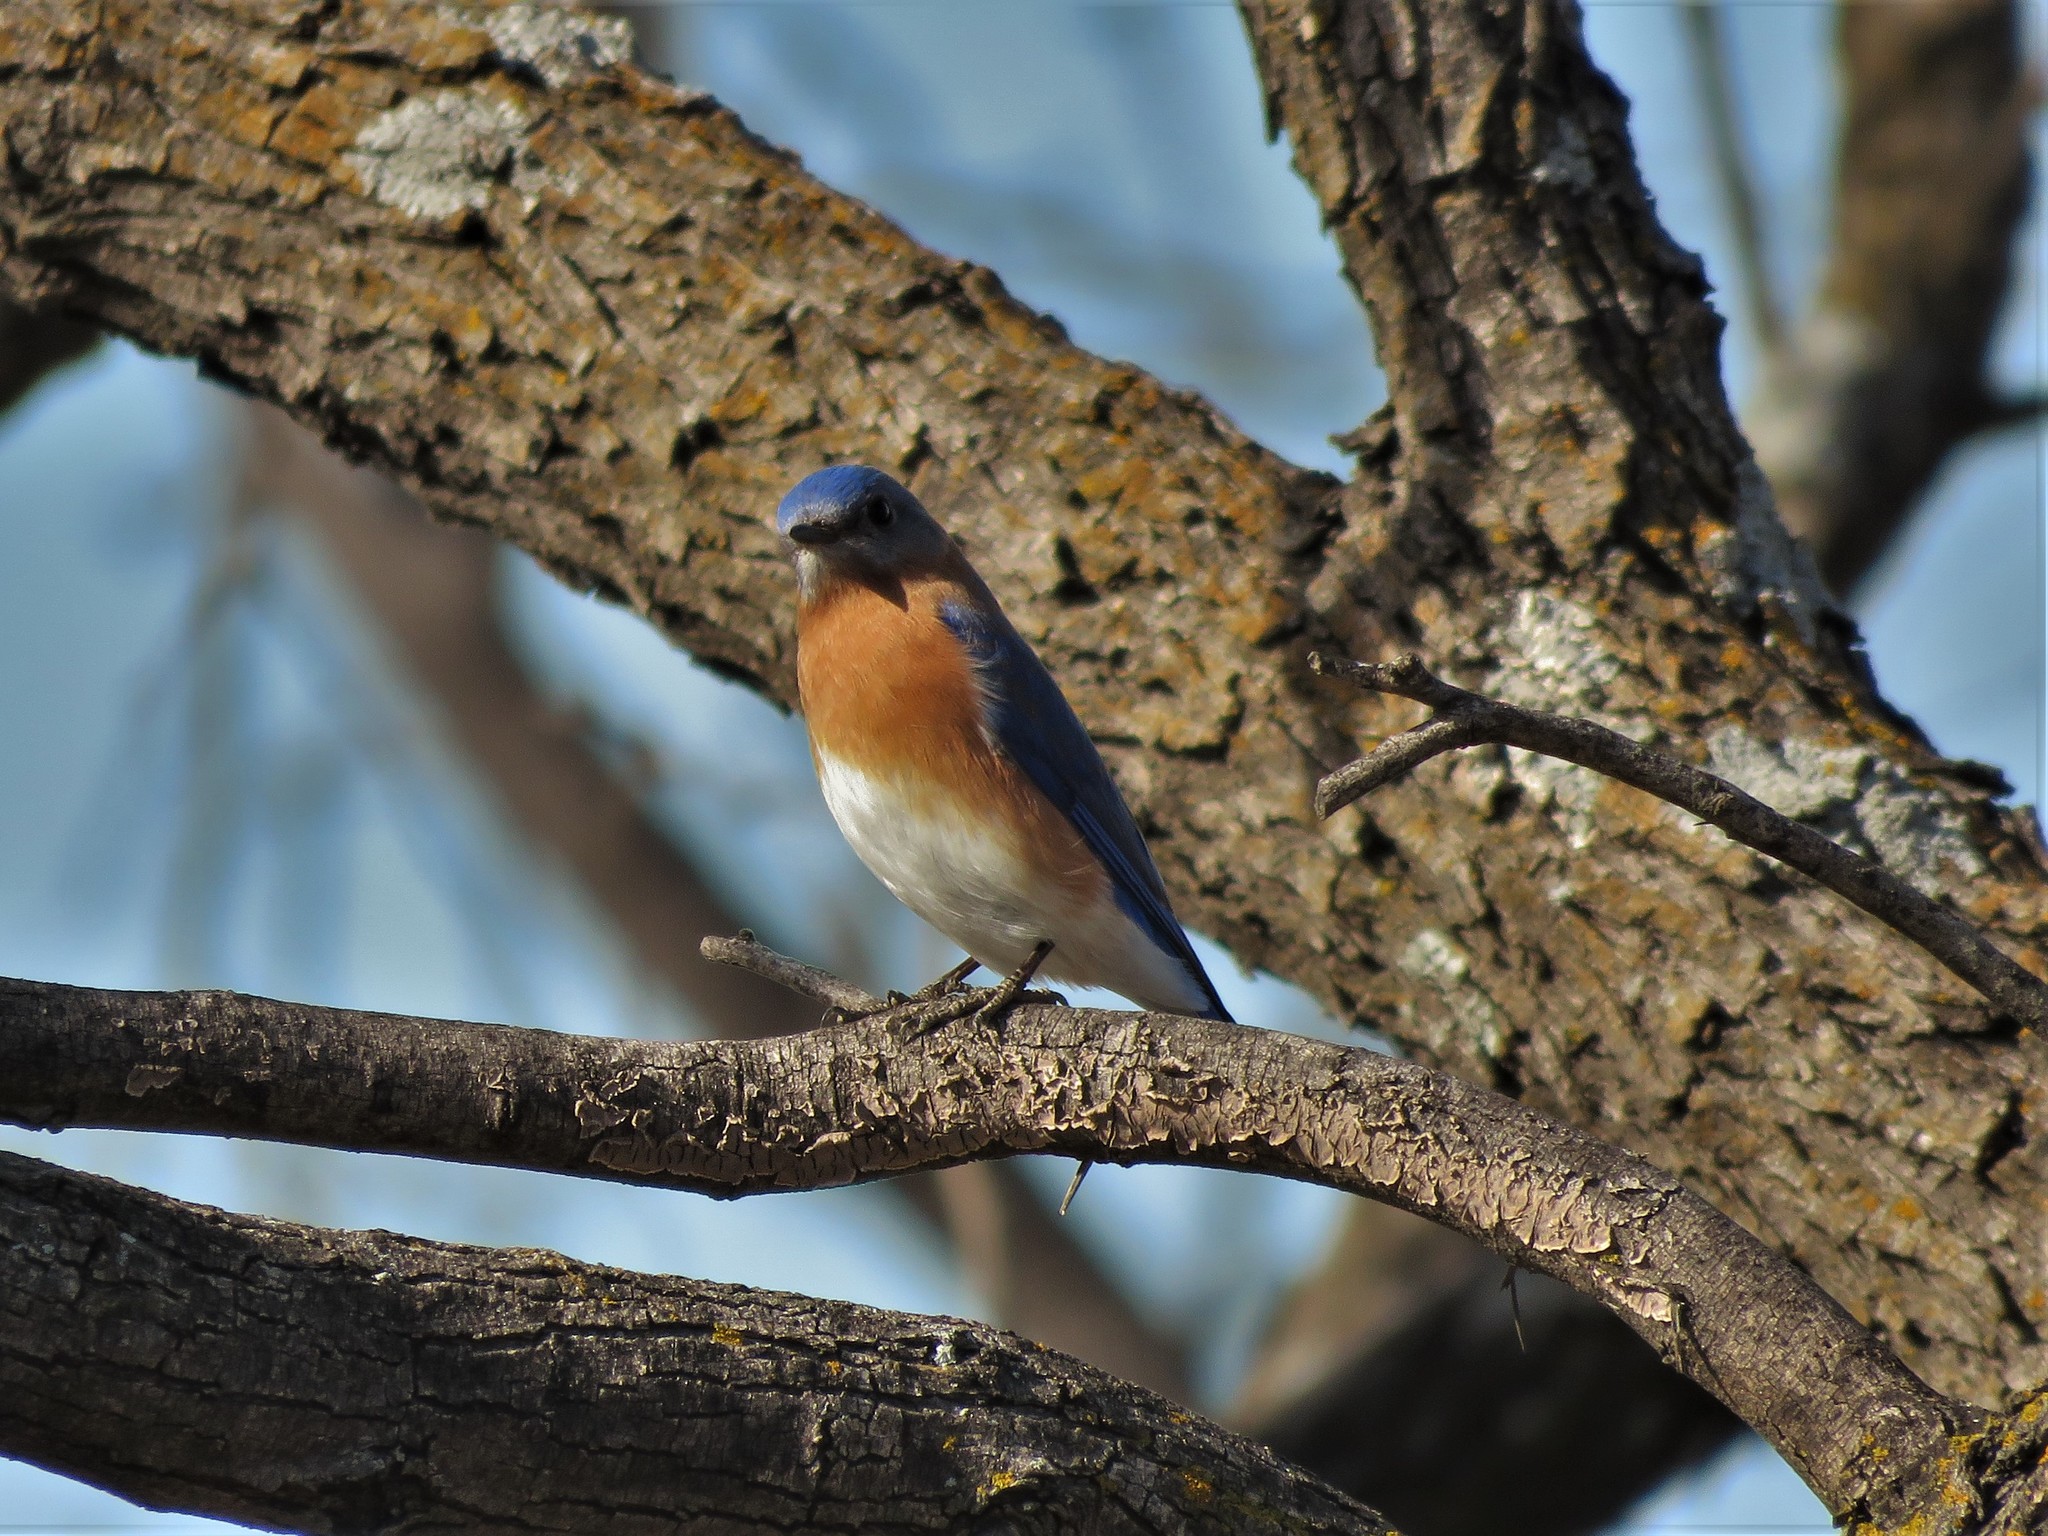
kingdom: Animalia
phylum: Chordata
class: Aves
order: Passeriformes
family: Turdidae
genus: Sialia
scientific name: Sialia sialis
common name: Eastern bluebird
